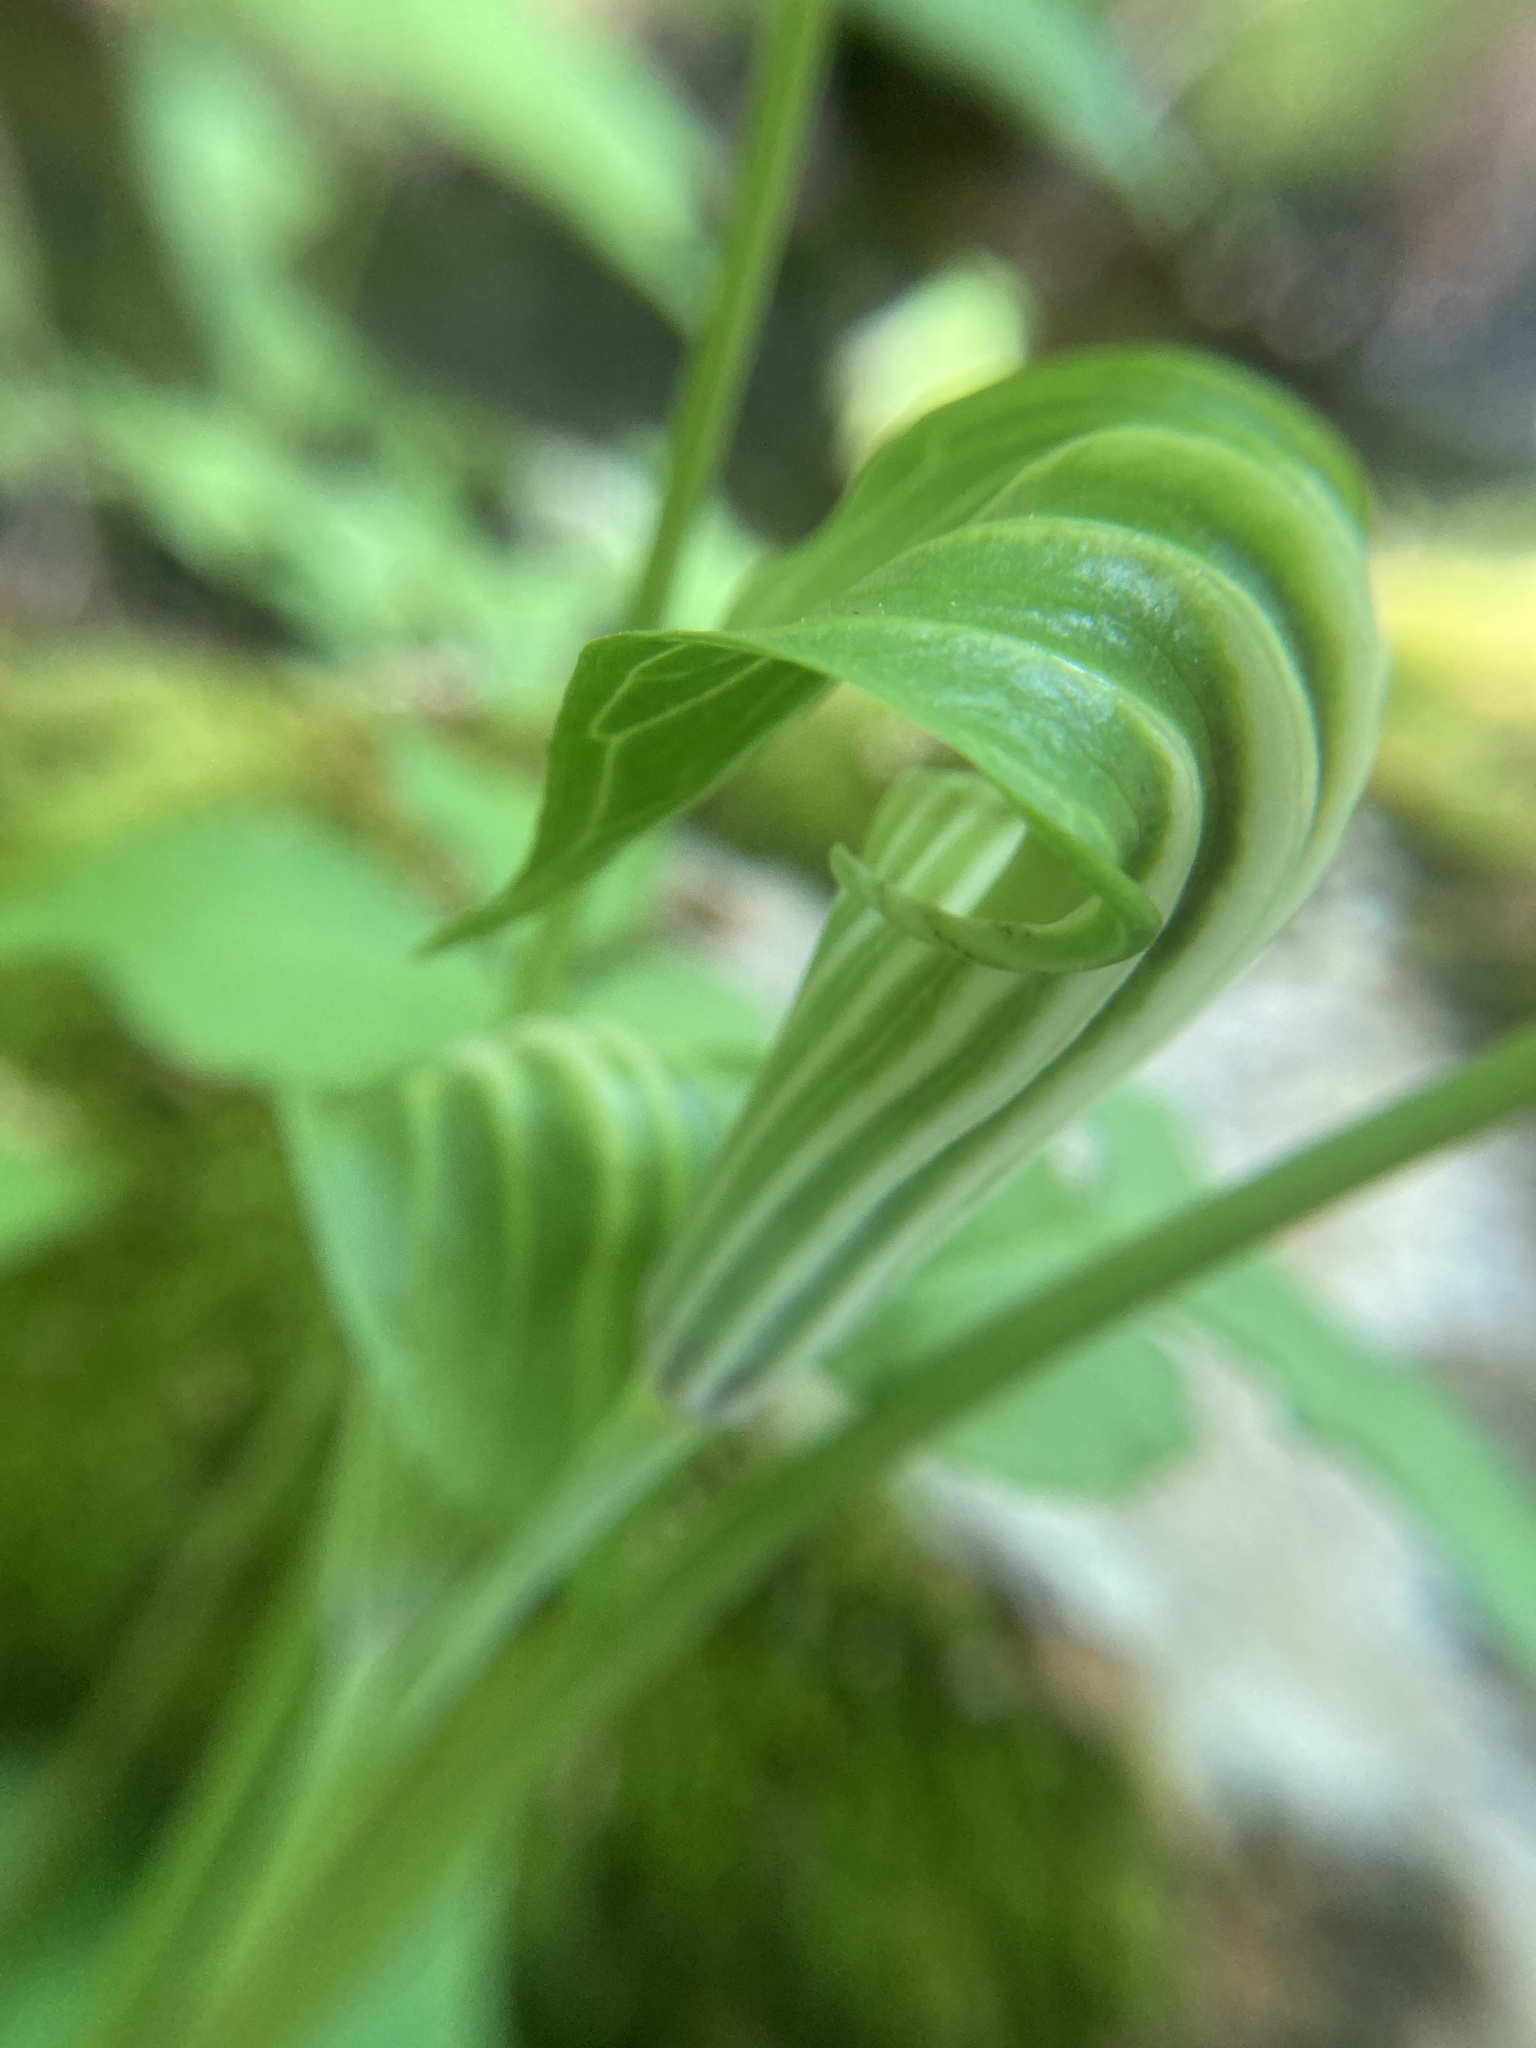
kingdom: Plantae
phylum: Tracheophyta
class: Liliopsida
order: Alismatales
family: Araceae
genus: Arisaema
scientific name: Arisaema stewardsonii
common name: Swamp jack-in-the-pulpit
